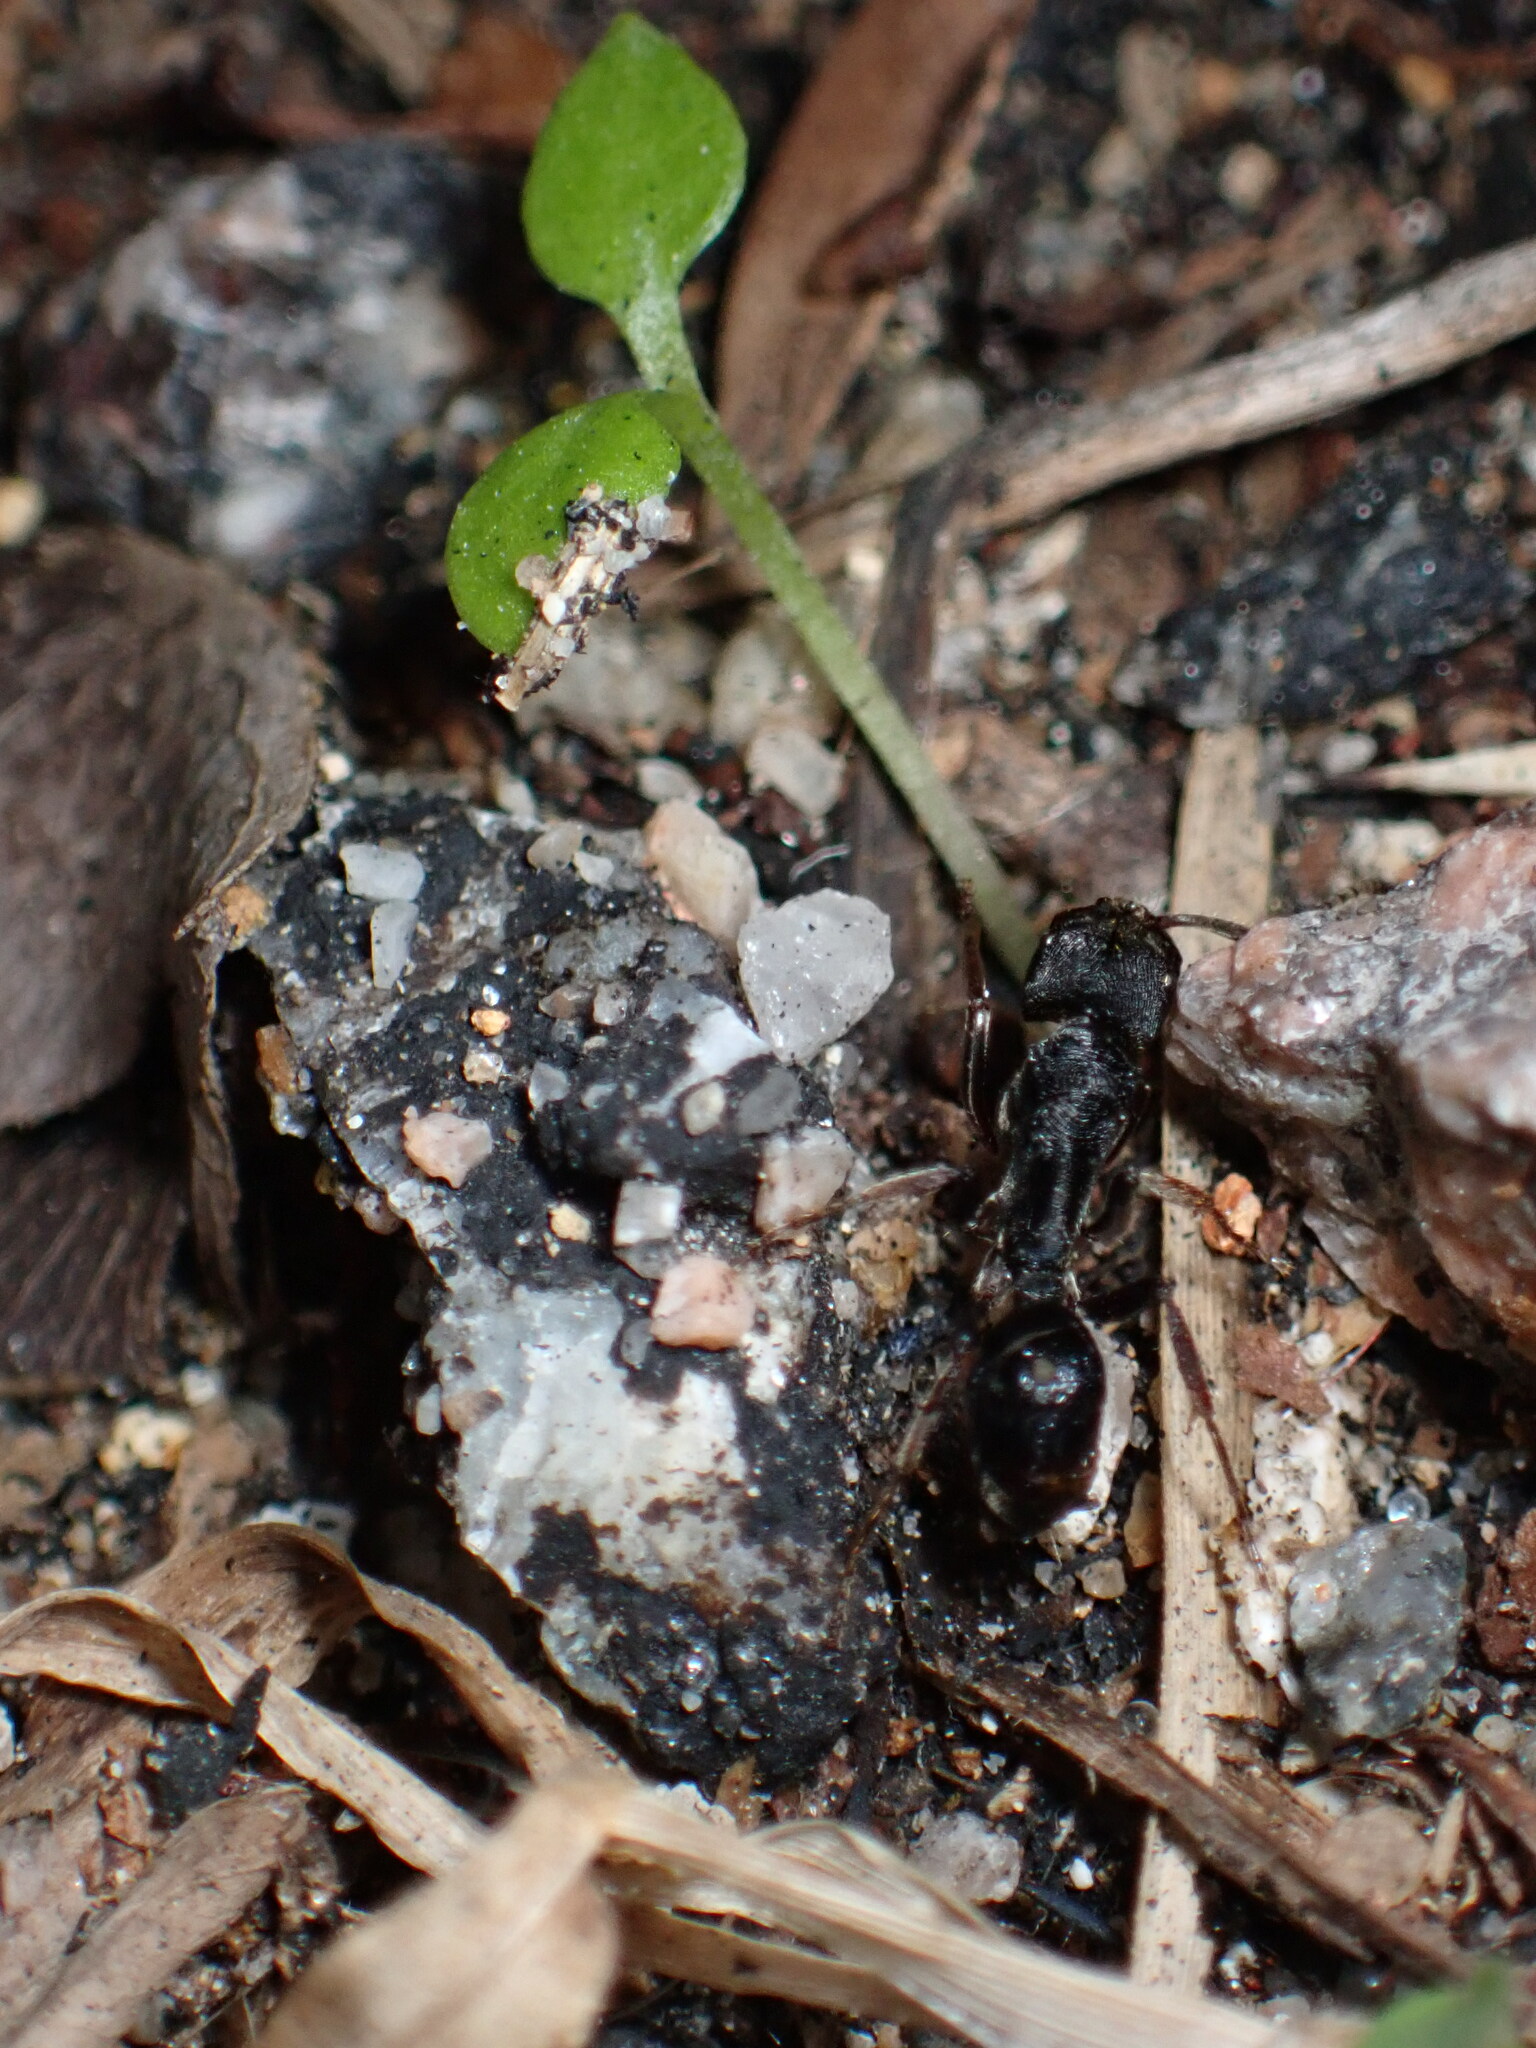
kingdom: Animalia
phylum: Arthropoda
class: Insecta
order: Hymenoptera
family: Formicidae
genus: Odontoponera
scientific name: Odontoponera denticulata
